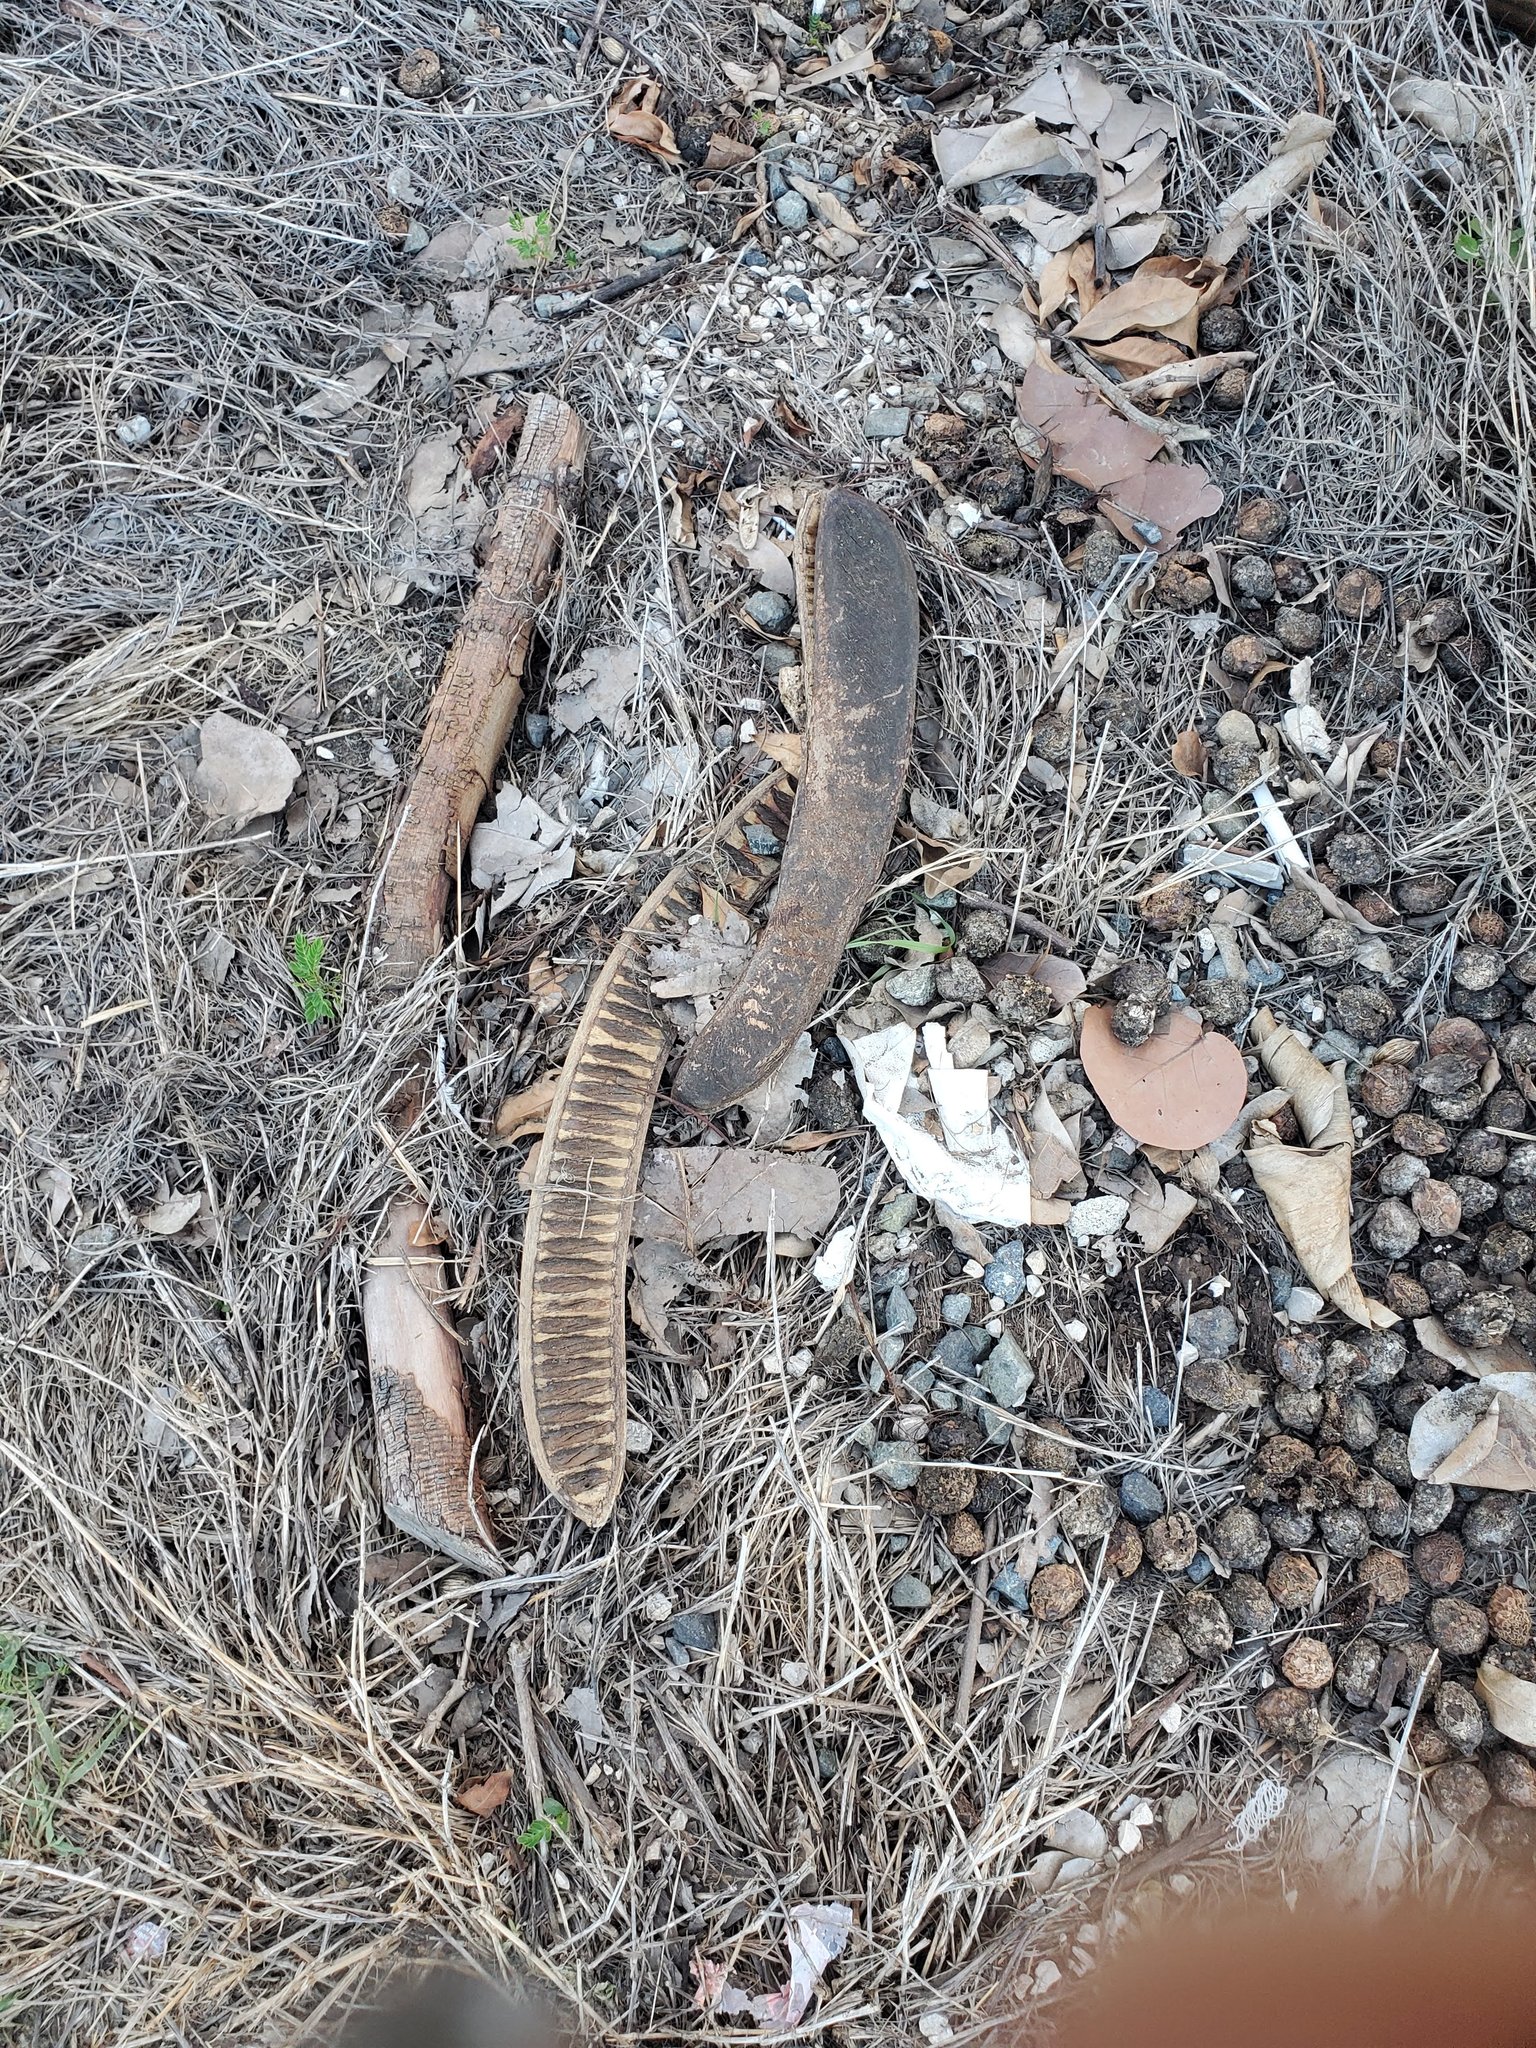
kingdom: Plantae
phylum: Tracheophyta
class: Magnoliopsida
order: Fabales
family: Fabaceae
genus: Delonix
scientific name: Delonix regia
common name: Royal poinciana
